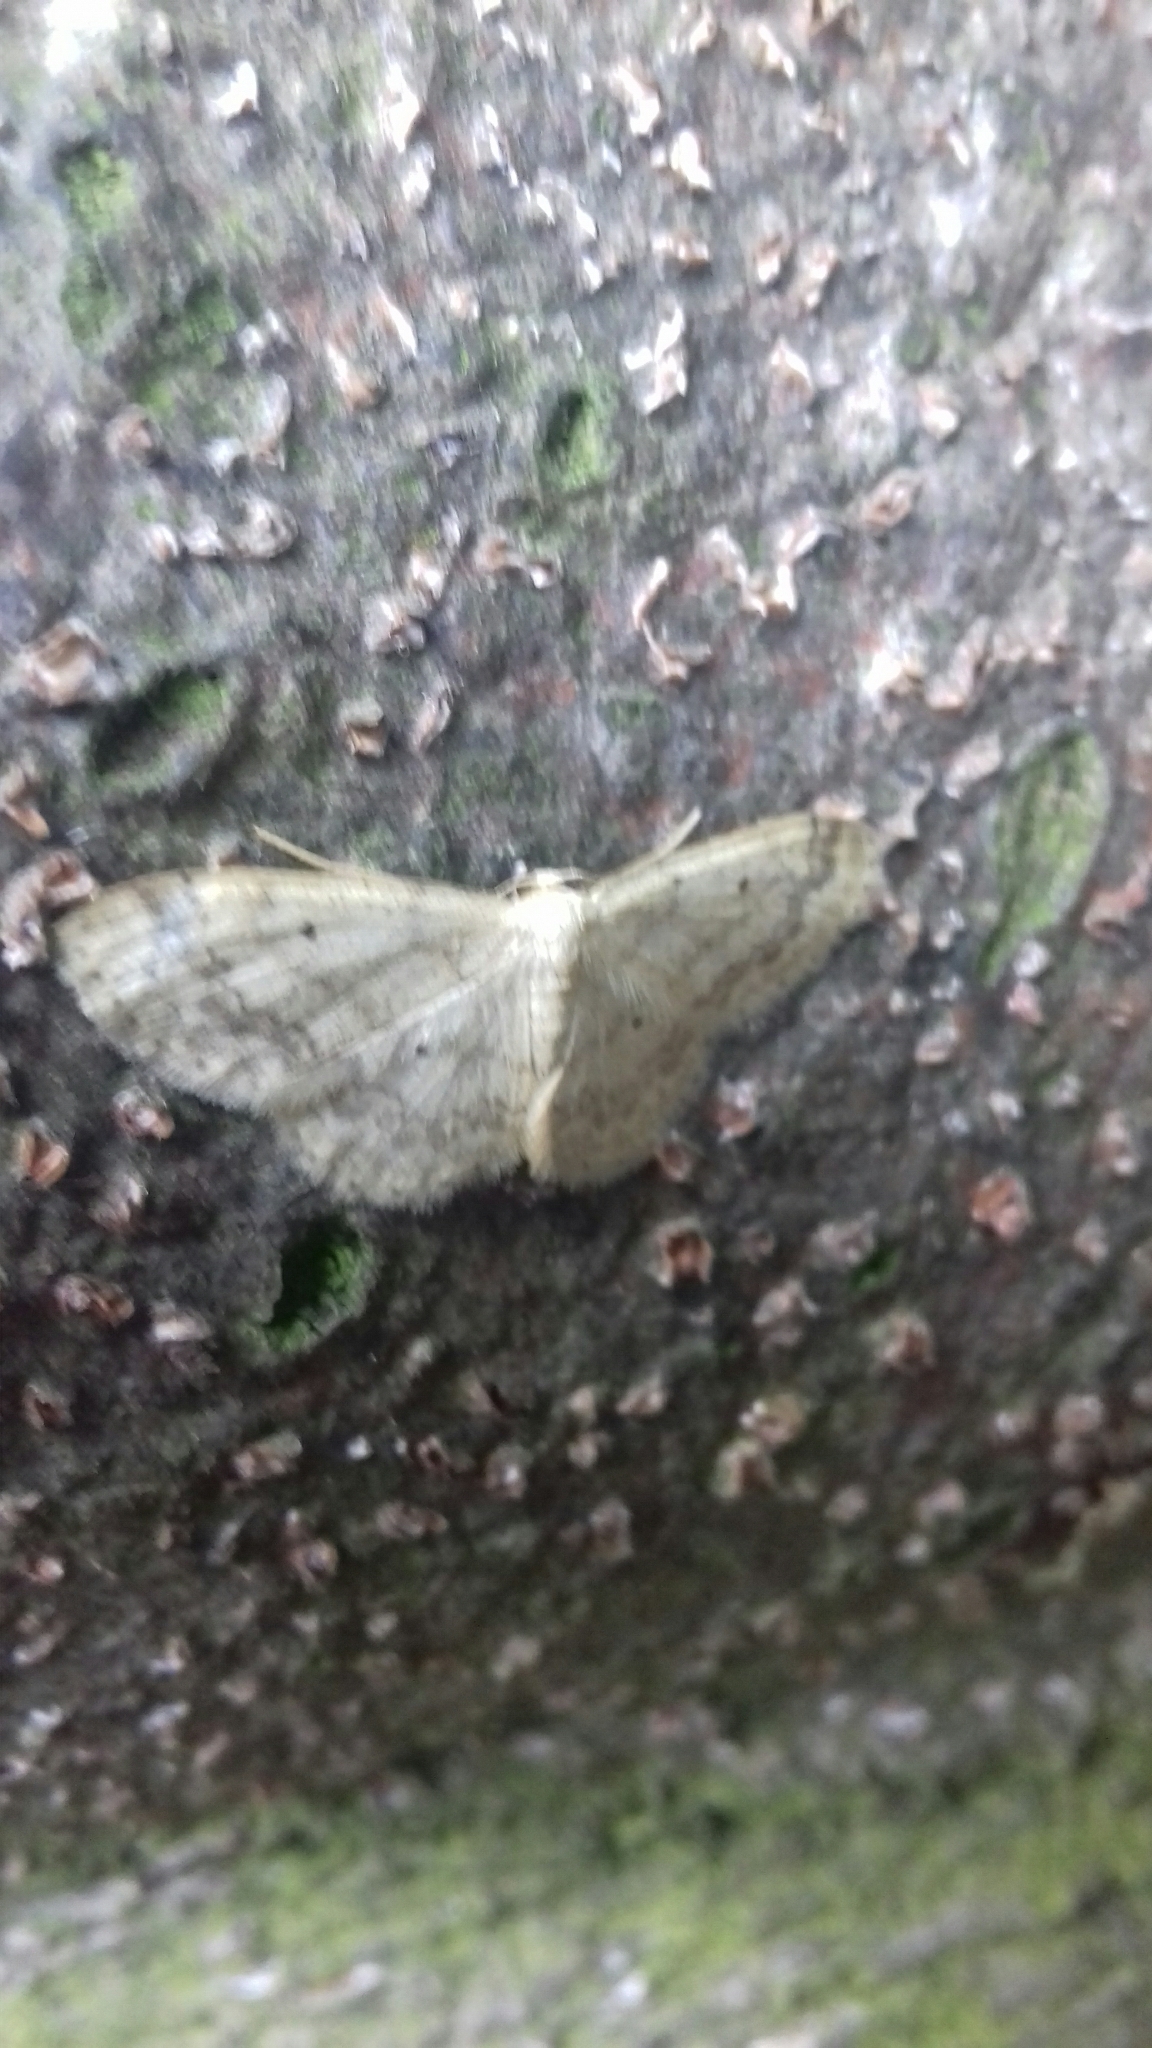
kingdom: Animalia
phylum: Arthropoda
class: Insecta
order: Lepidoptera
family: Geometridae
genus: Idaea
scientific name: Idaea biselata
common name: Small fan-footed wave
